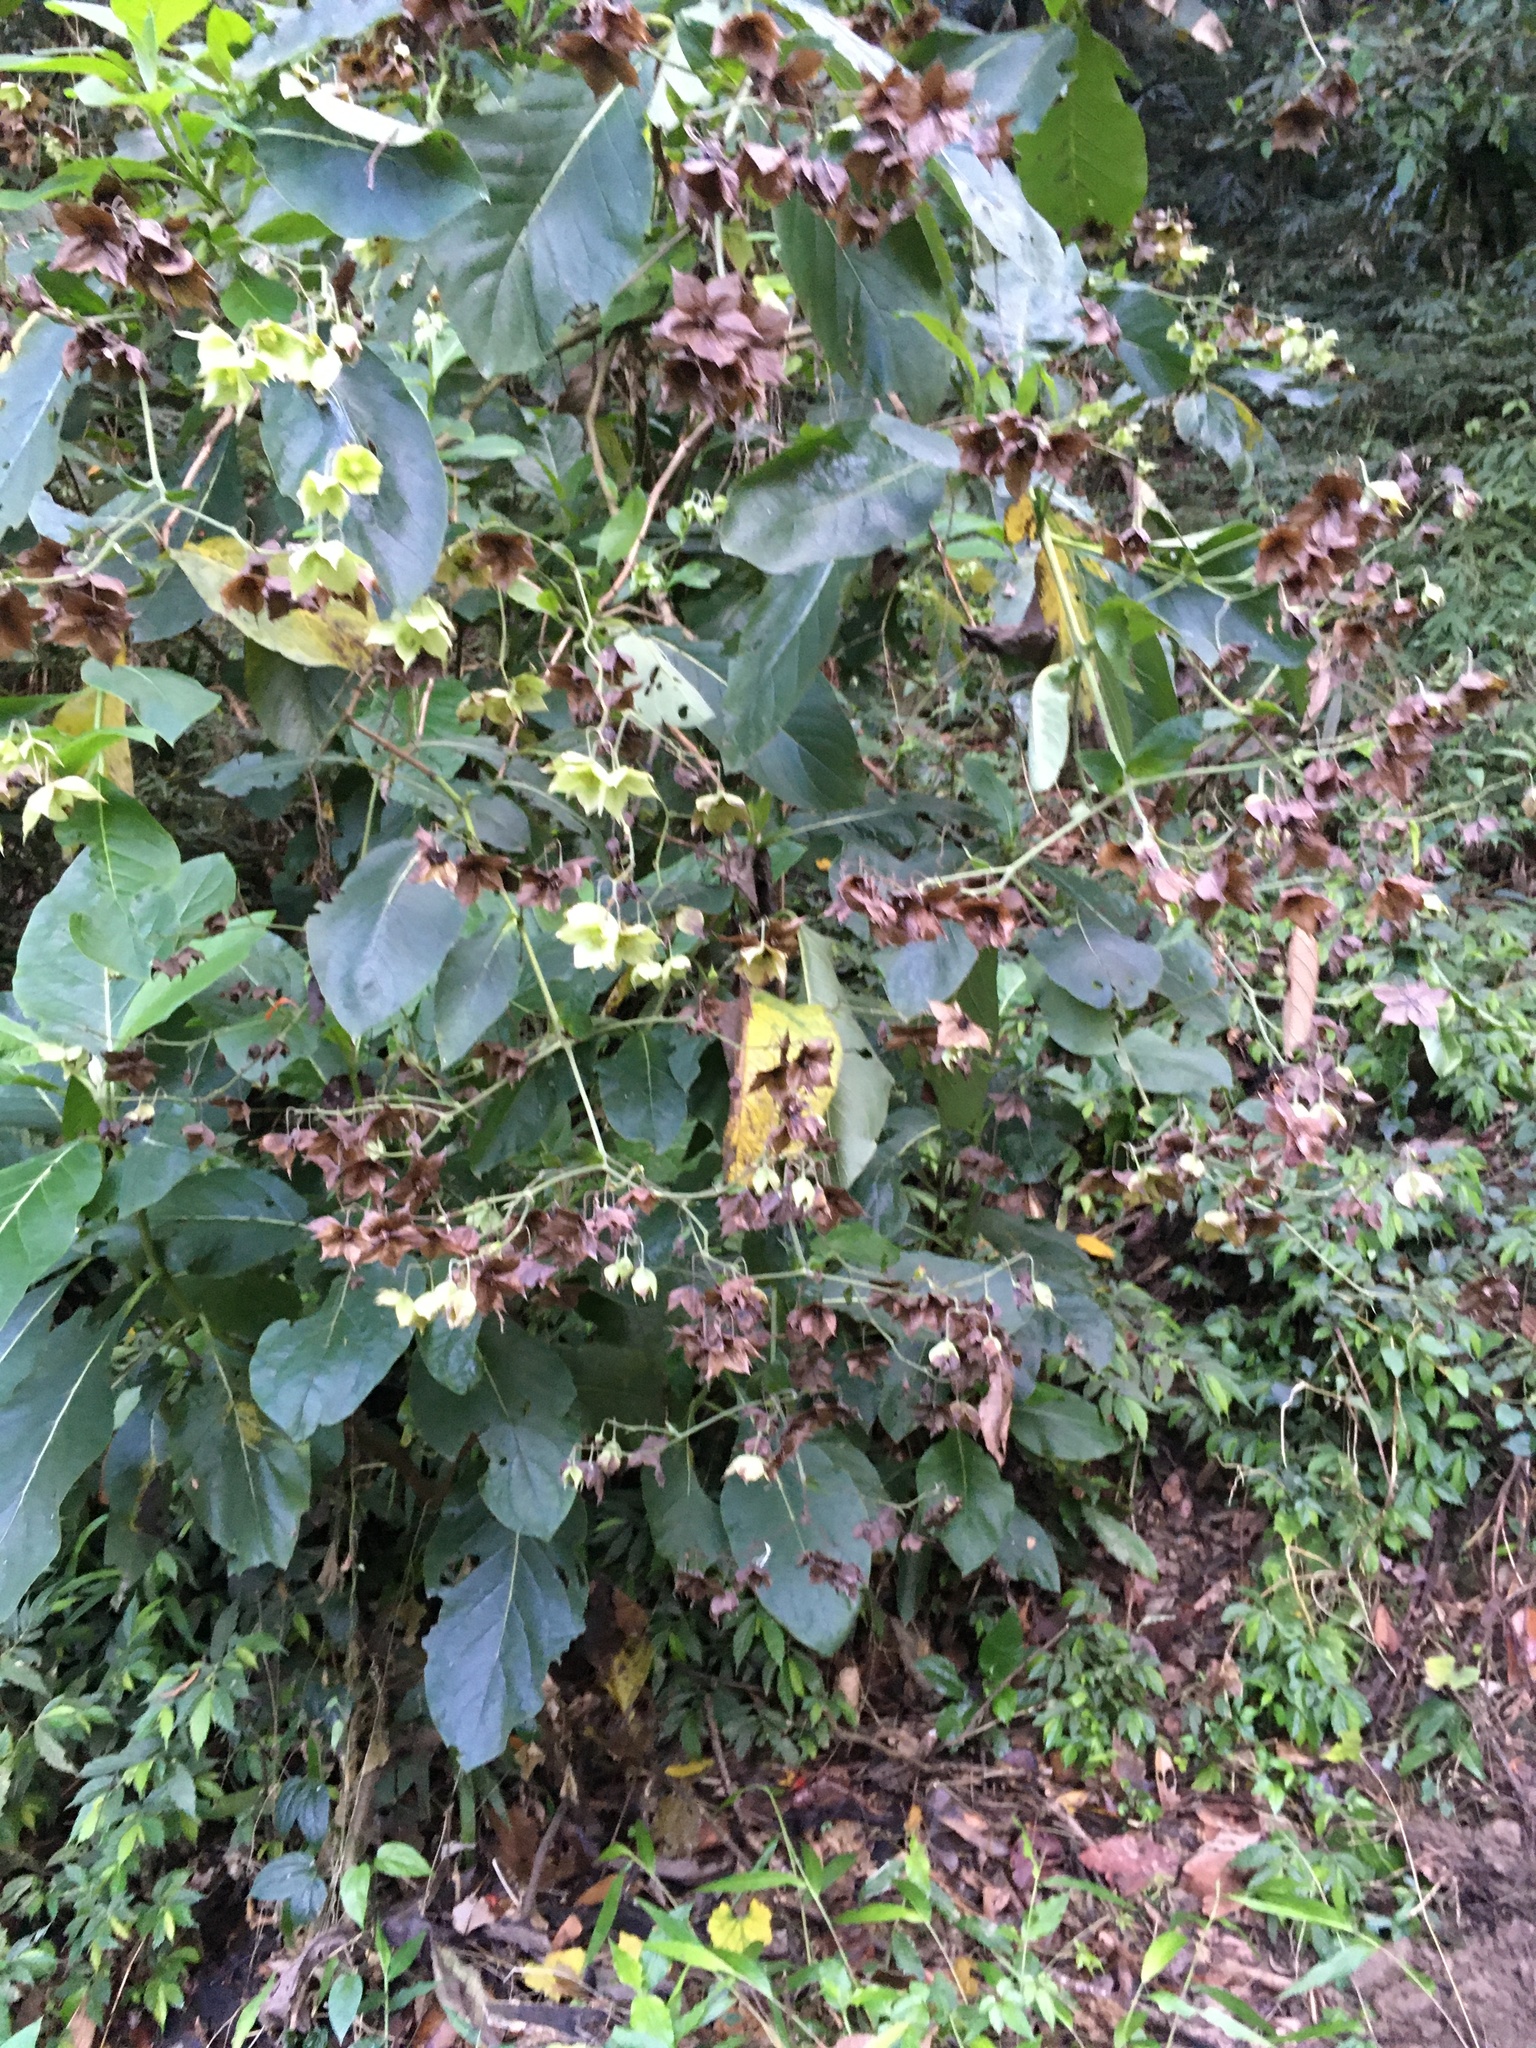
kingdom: Plantae
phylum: Tracheophyta
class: Magnoliopsida
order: Boraginales
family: Boraginaceae
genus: Trichodesma
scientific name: Trichodesma calycosum
